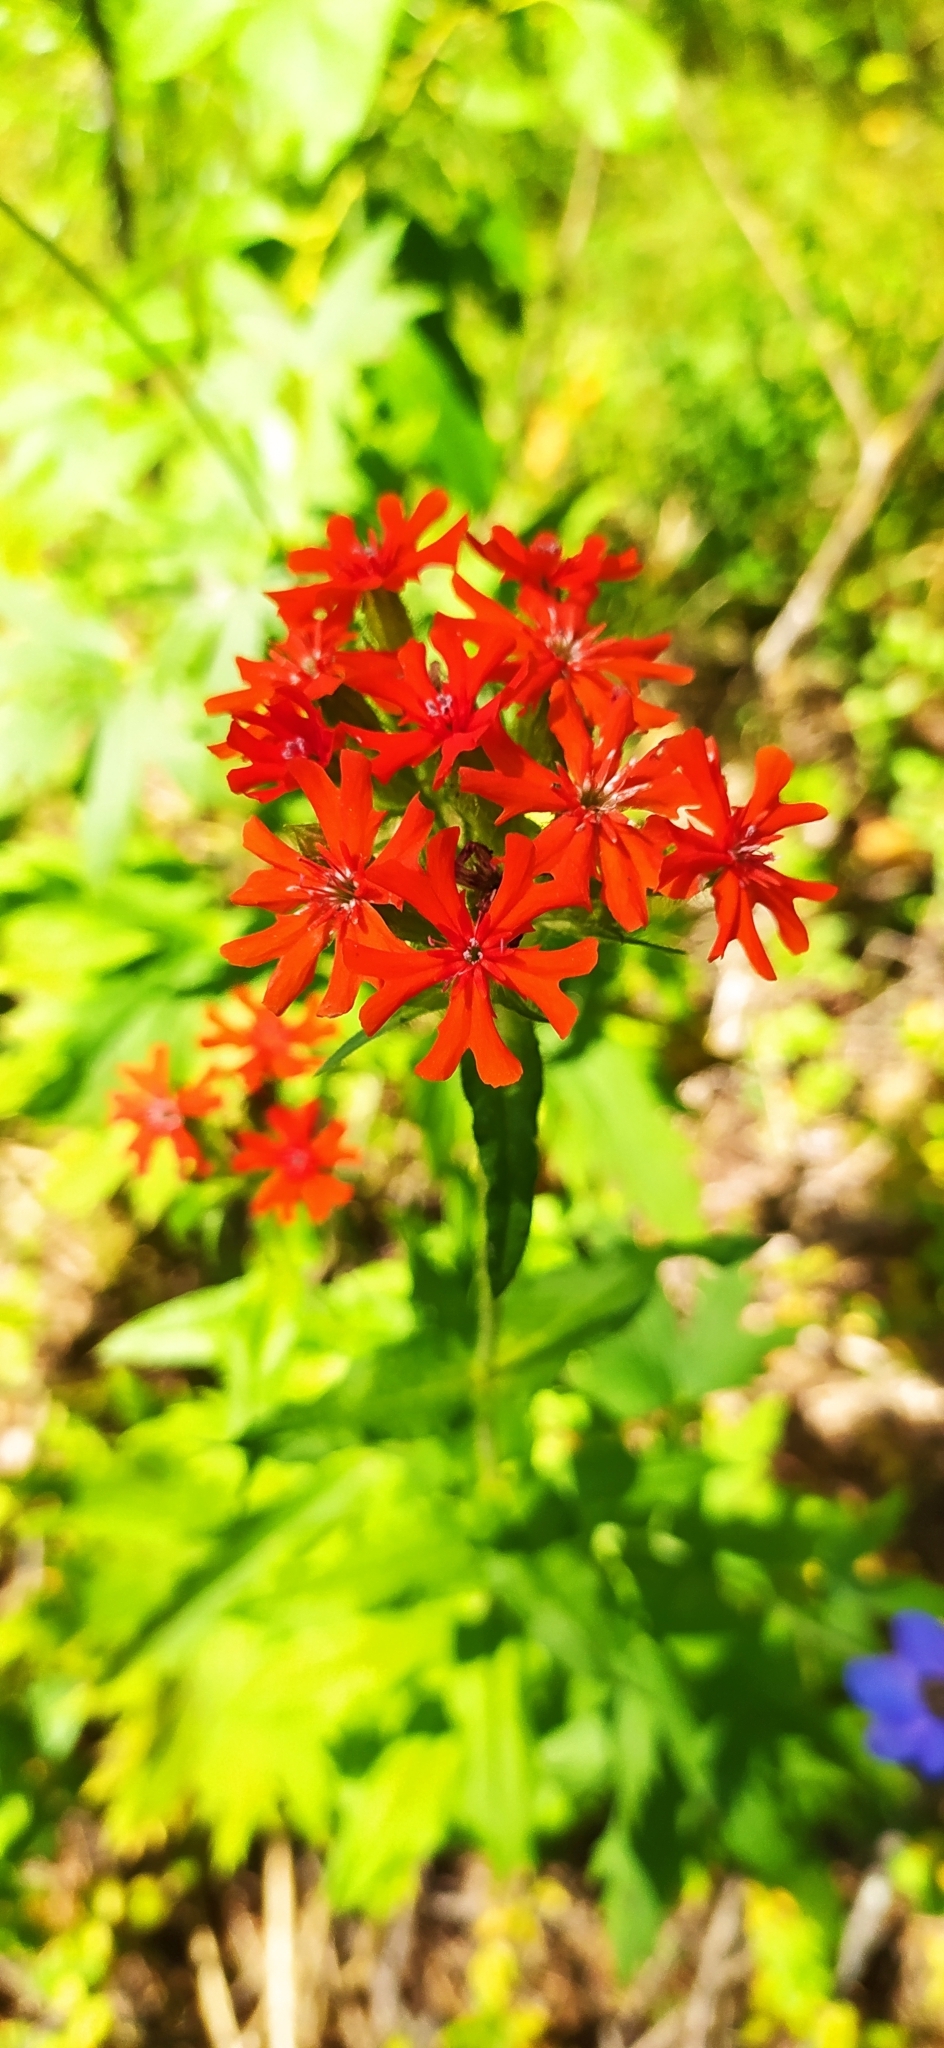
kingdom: Plantae
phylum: Tracheophyta
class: Magnoliopsida
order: Caryophyllales
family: Caryophyllaceae
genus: Silene
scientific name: Silene chalcedonica
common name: Maltese-cross
